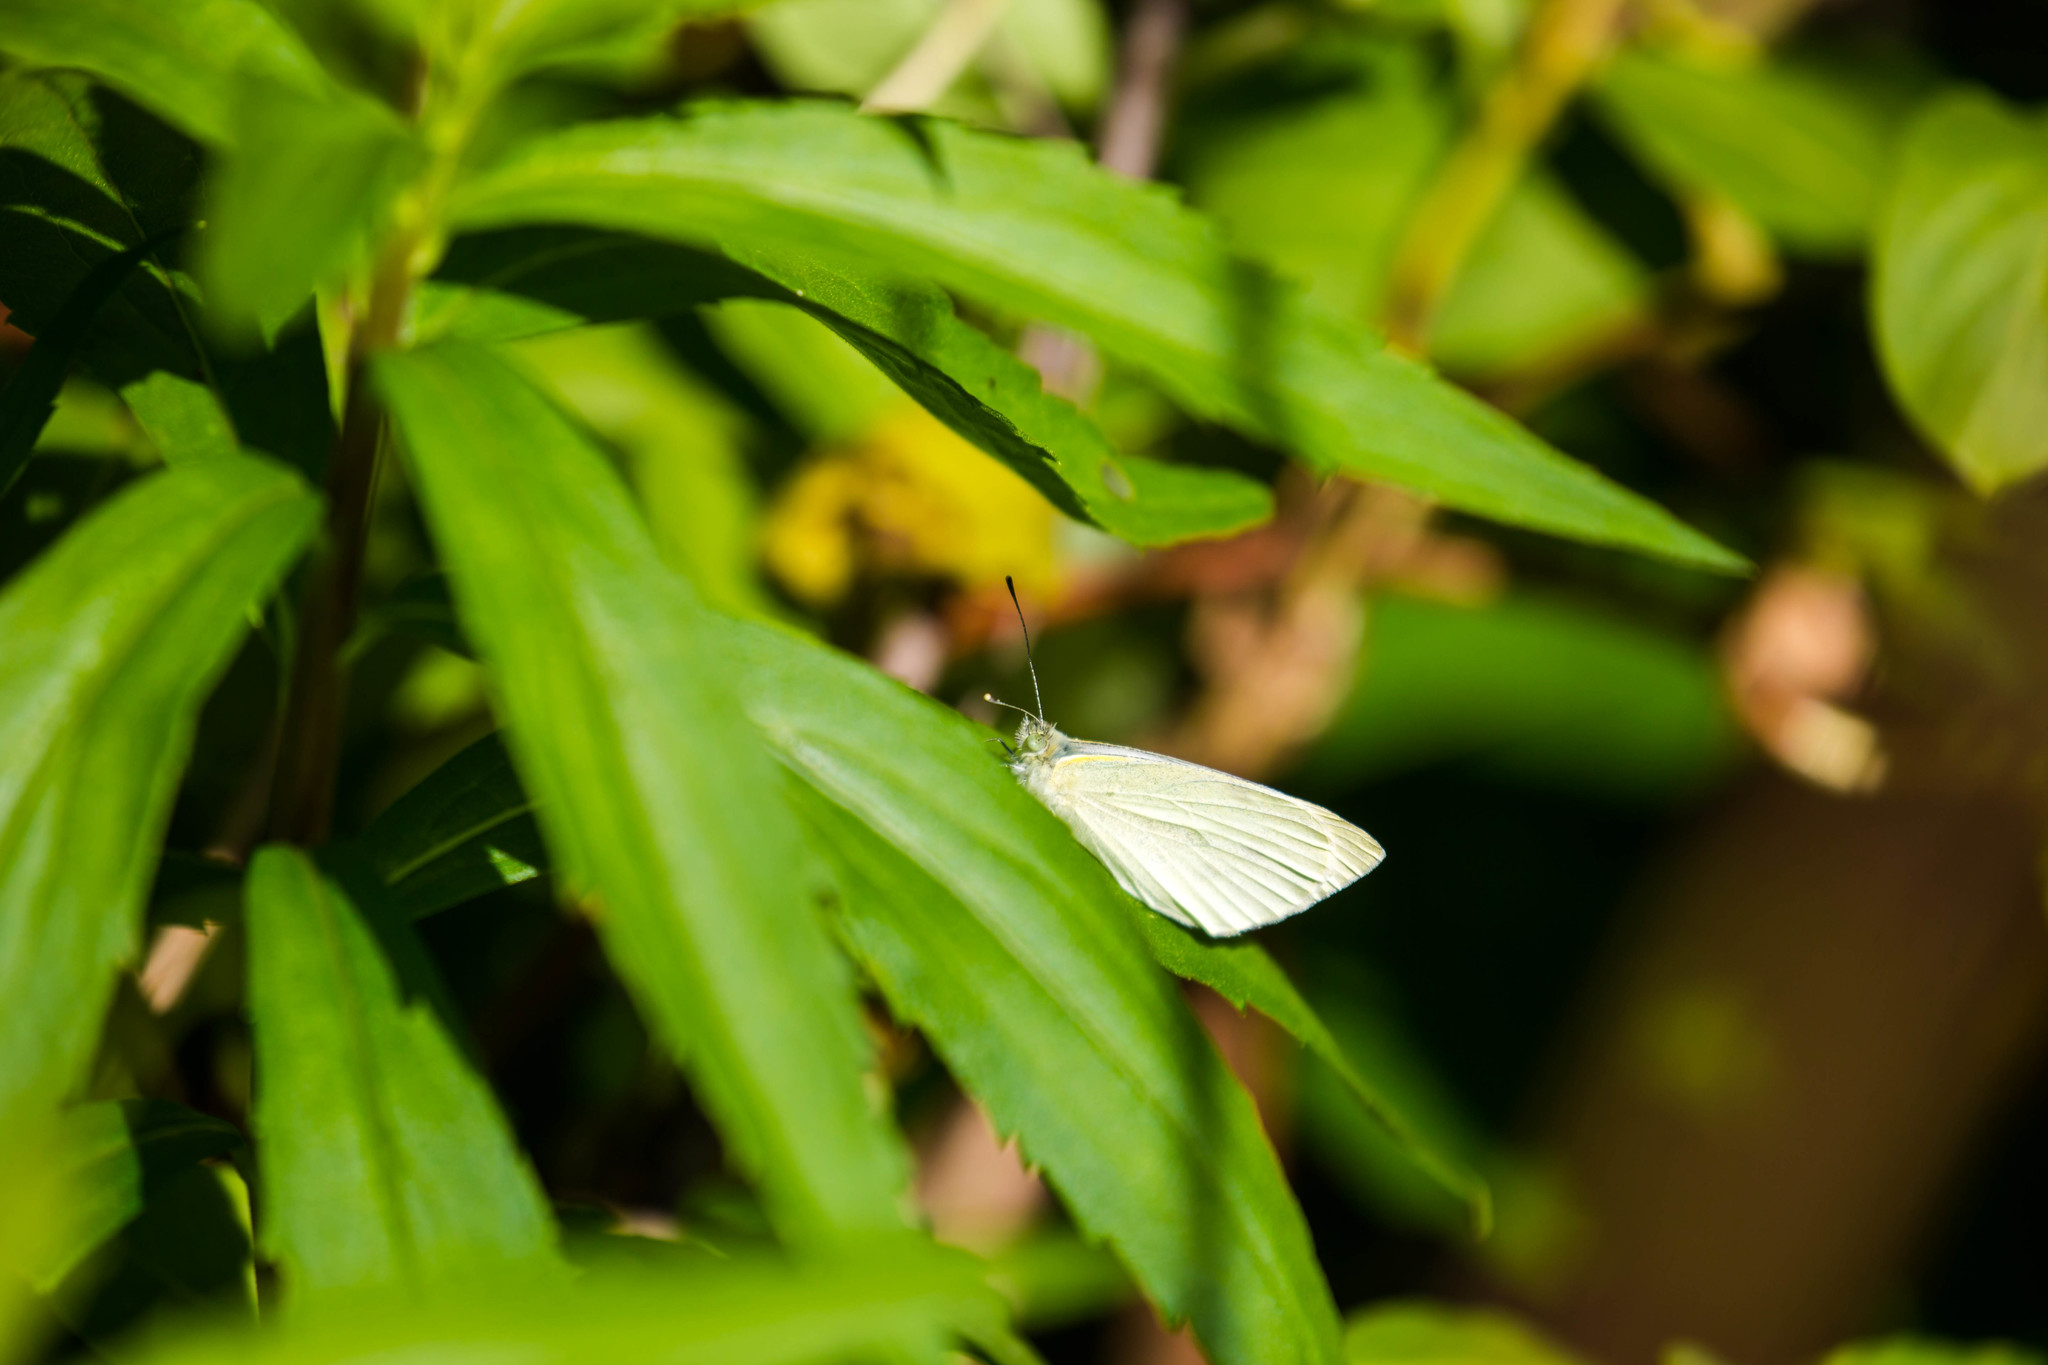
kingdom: Animalia
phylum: Arthropoda
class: Insecta
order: Lepidoptera
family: Pieridae
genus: Pieris
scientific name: Pieris rapae
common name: Small white
